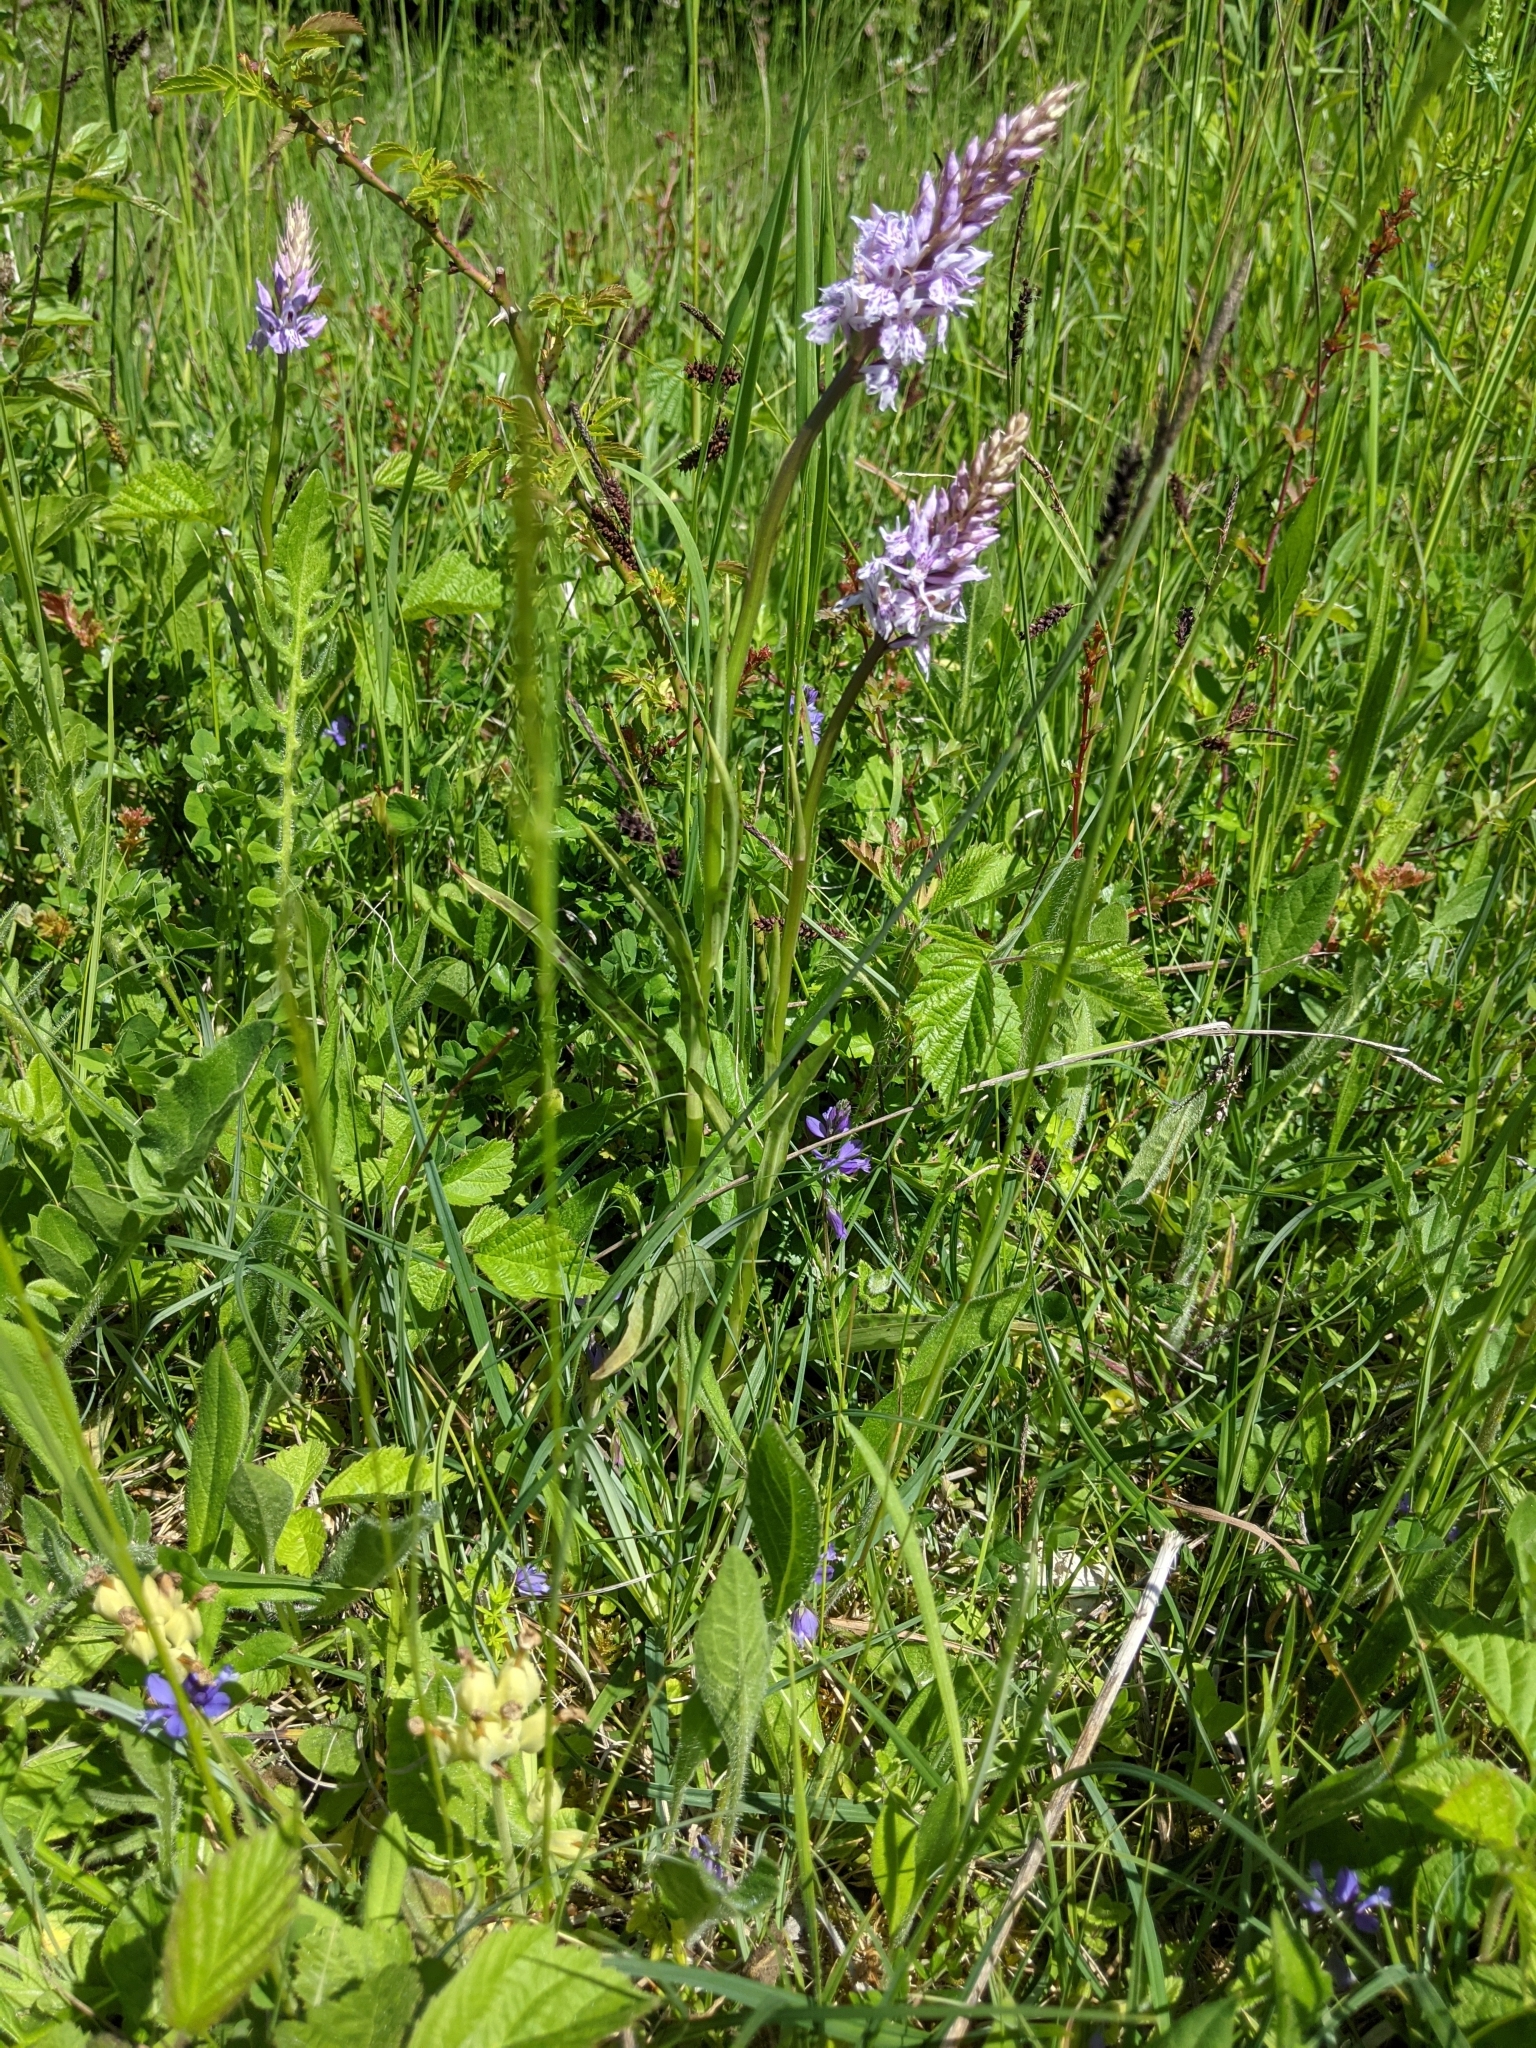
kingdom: Plantae
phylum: Tracheophyta
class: Liliopsida
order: Asparagales
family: Orchidaceae
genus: Dactylorhiza
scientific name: Dactylorhiza maculata
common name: Heath spotted-orchid
